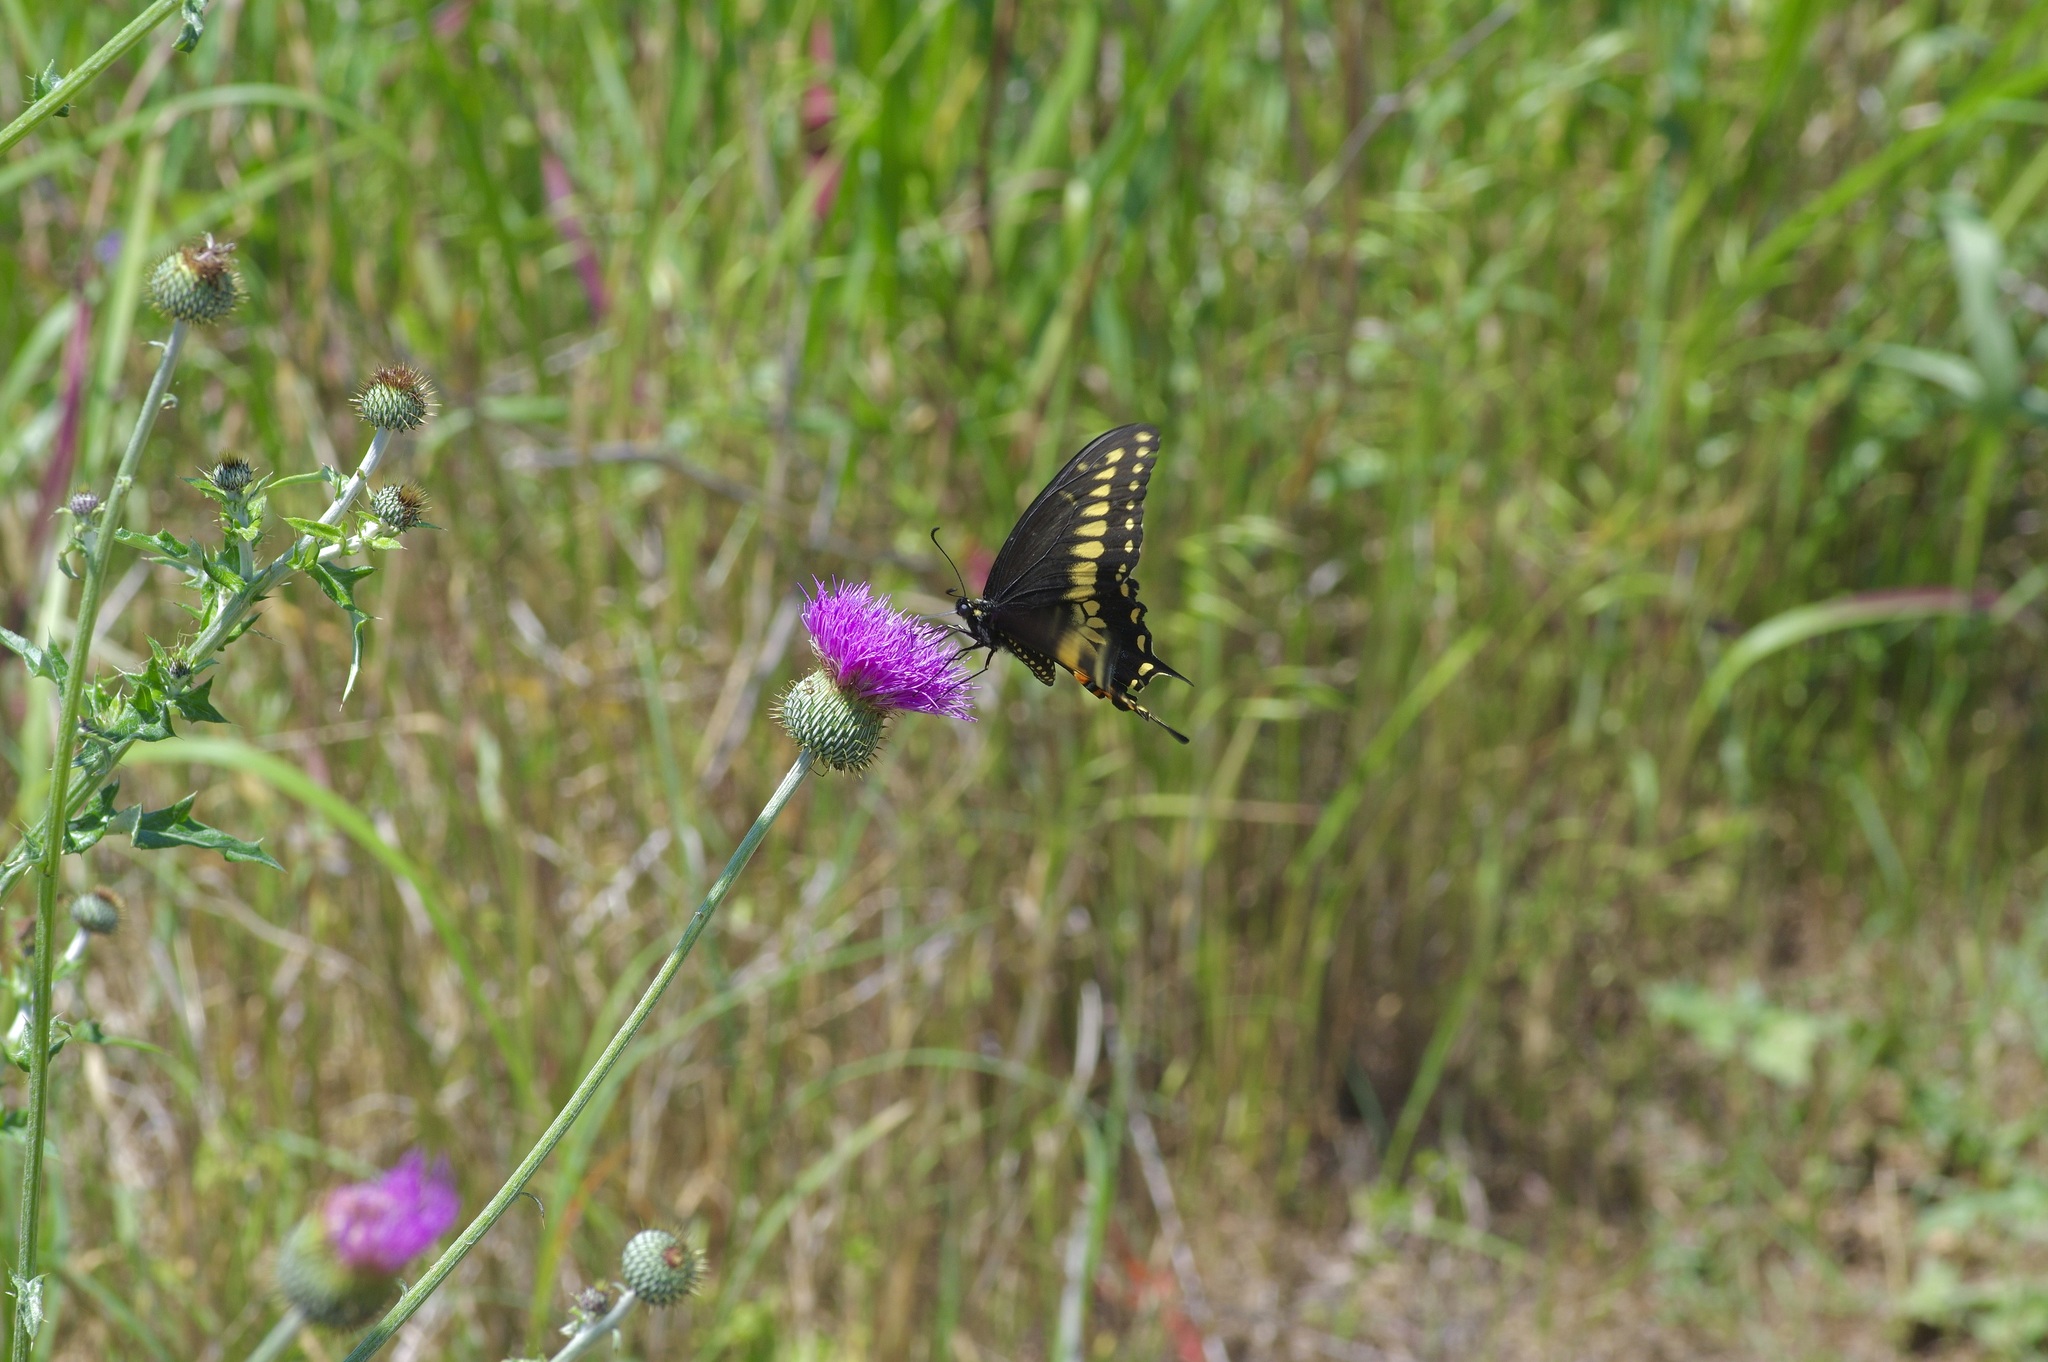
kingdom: Animalia
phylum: Arthropoda
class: Insecta
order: Lepidoptera
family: Papilionidae
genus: Papilio
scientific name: Papilio polyxenes
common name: Black swallowtail
